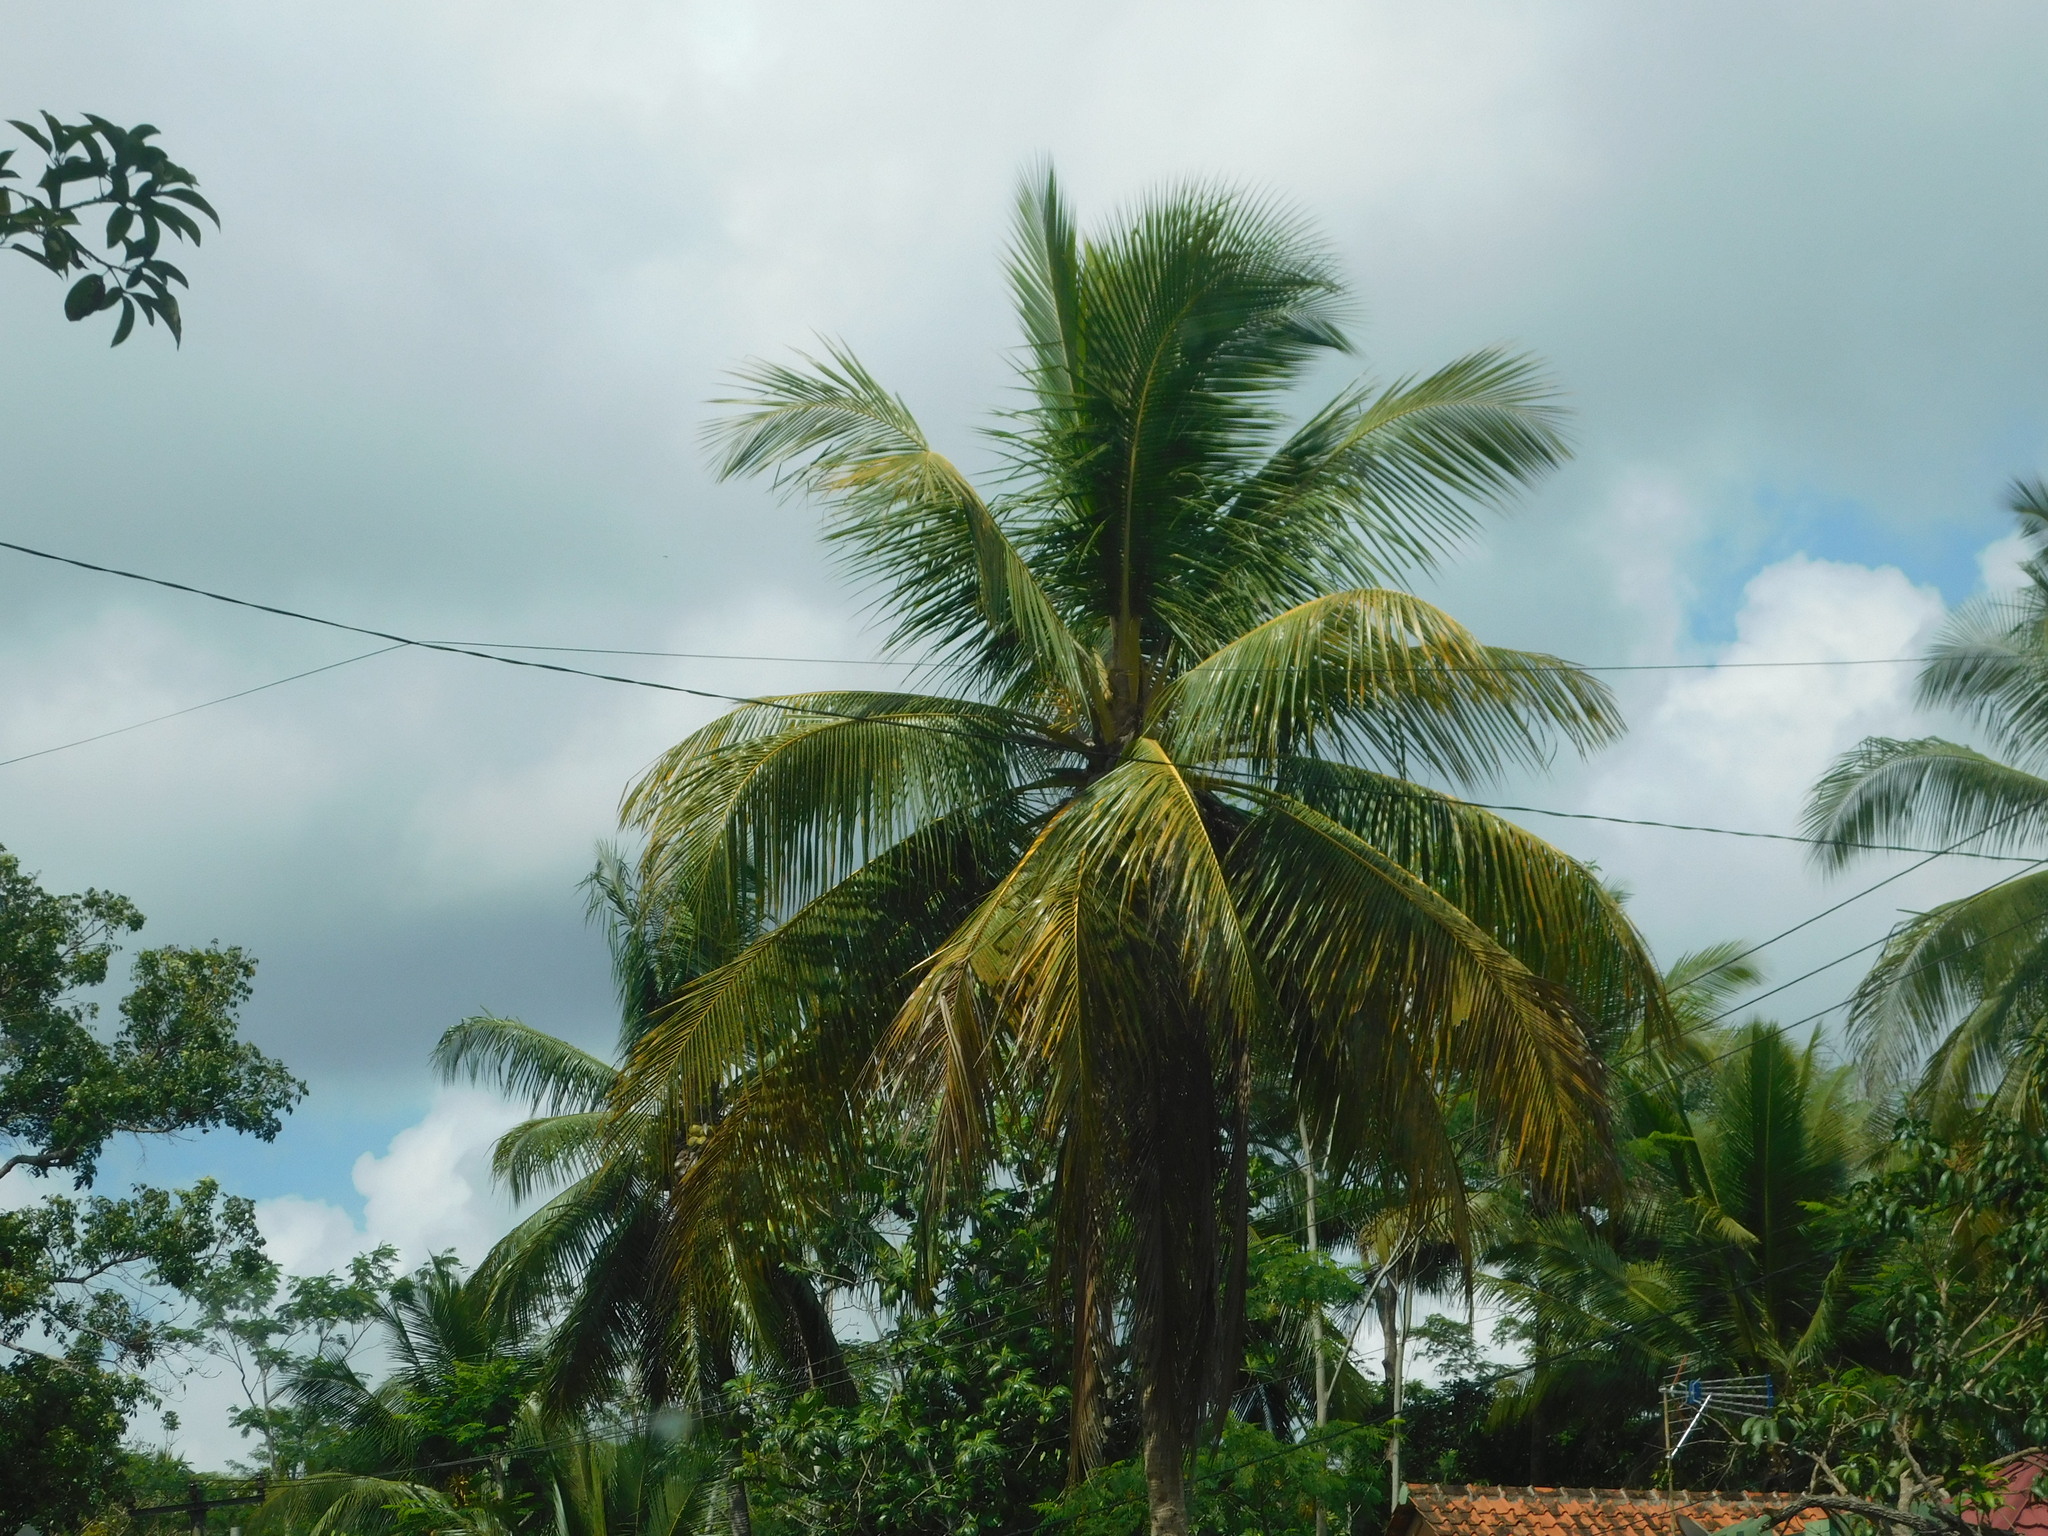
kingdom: Plantae
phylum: Tracheophyta
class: Liliopsida
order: Arecales
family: Arecaceae
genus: Cocos
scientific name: Cocos nucifera
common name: Coconut palm
